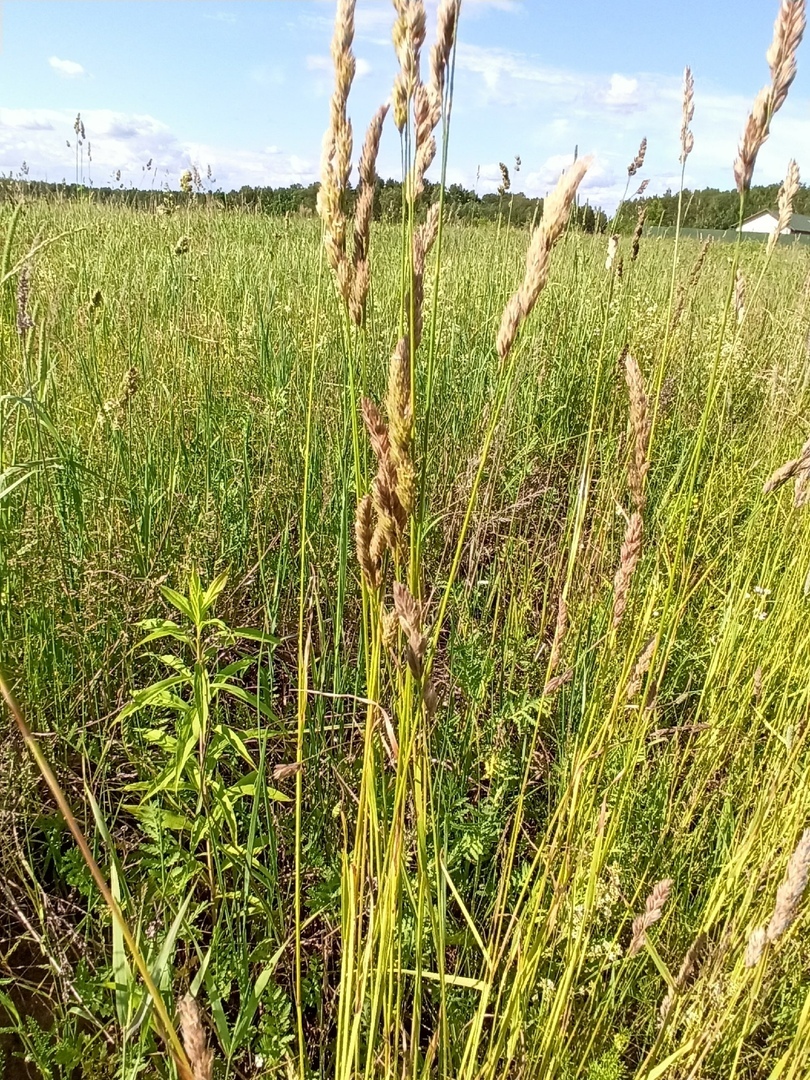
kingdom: Plantae
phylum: Tracheophyta
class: Liliopsida
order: Poales
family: Poaceae
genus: Dactylis
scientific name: Dactylis glomerata
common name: Orchardgrass
